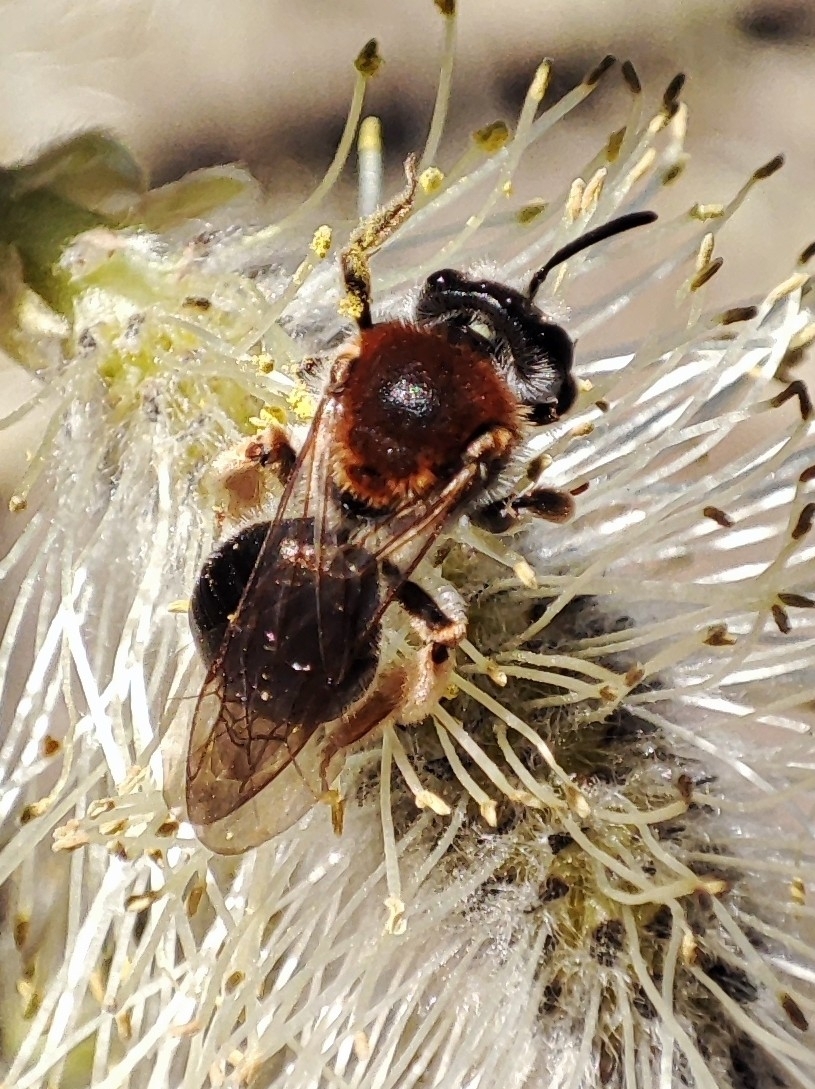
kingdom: Animalia
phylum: Arthropoda
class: Insecta
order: Hymenoptera
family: Andrenidae
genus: Andrena
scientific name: Andrena haemorrhoa
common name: Early mining bee
